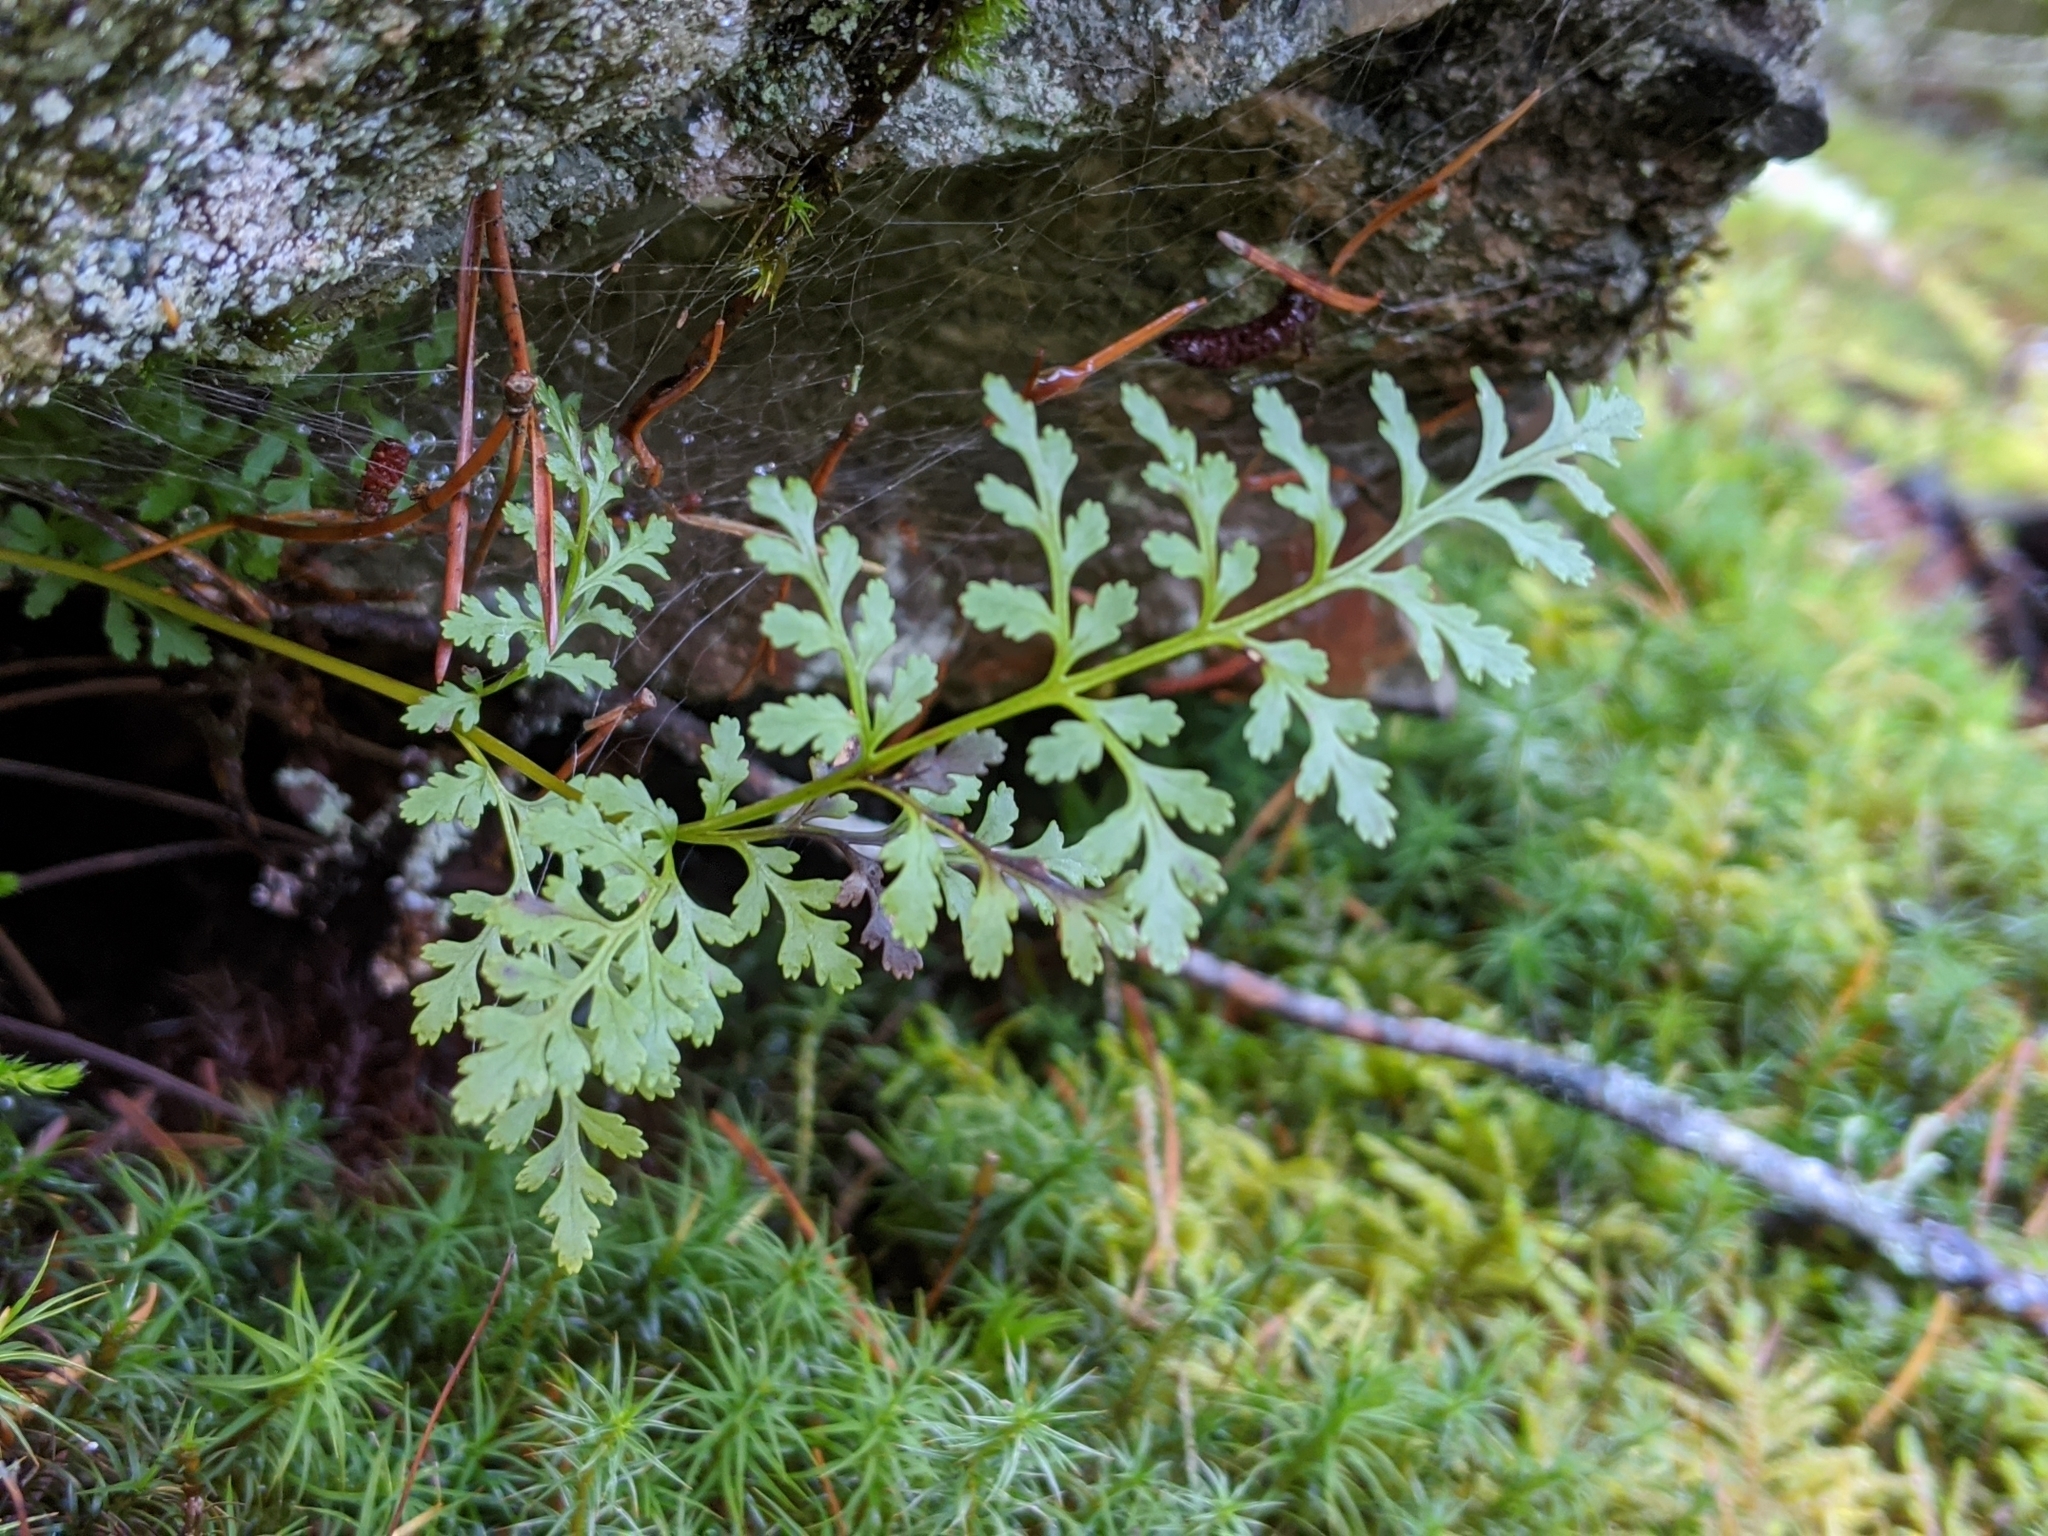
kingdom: Plantae
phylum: Tracheophyta
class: Polypodiopsida
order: Polypodiales
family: Pteridaceae
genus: Cryptogramma
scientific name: Cryptogramma acrostichoides
